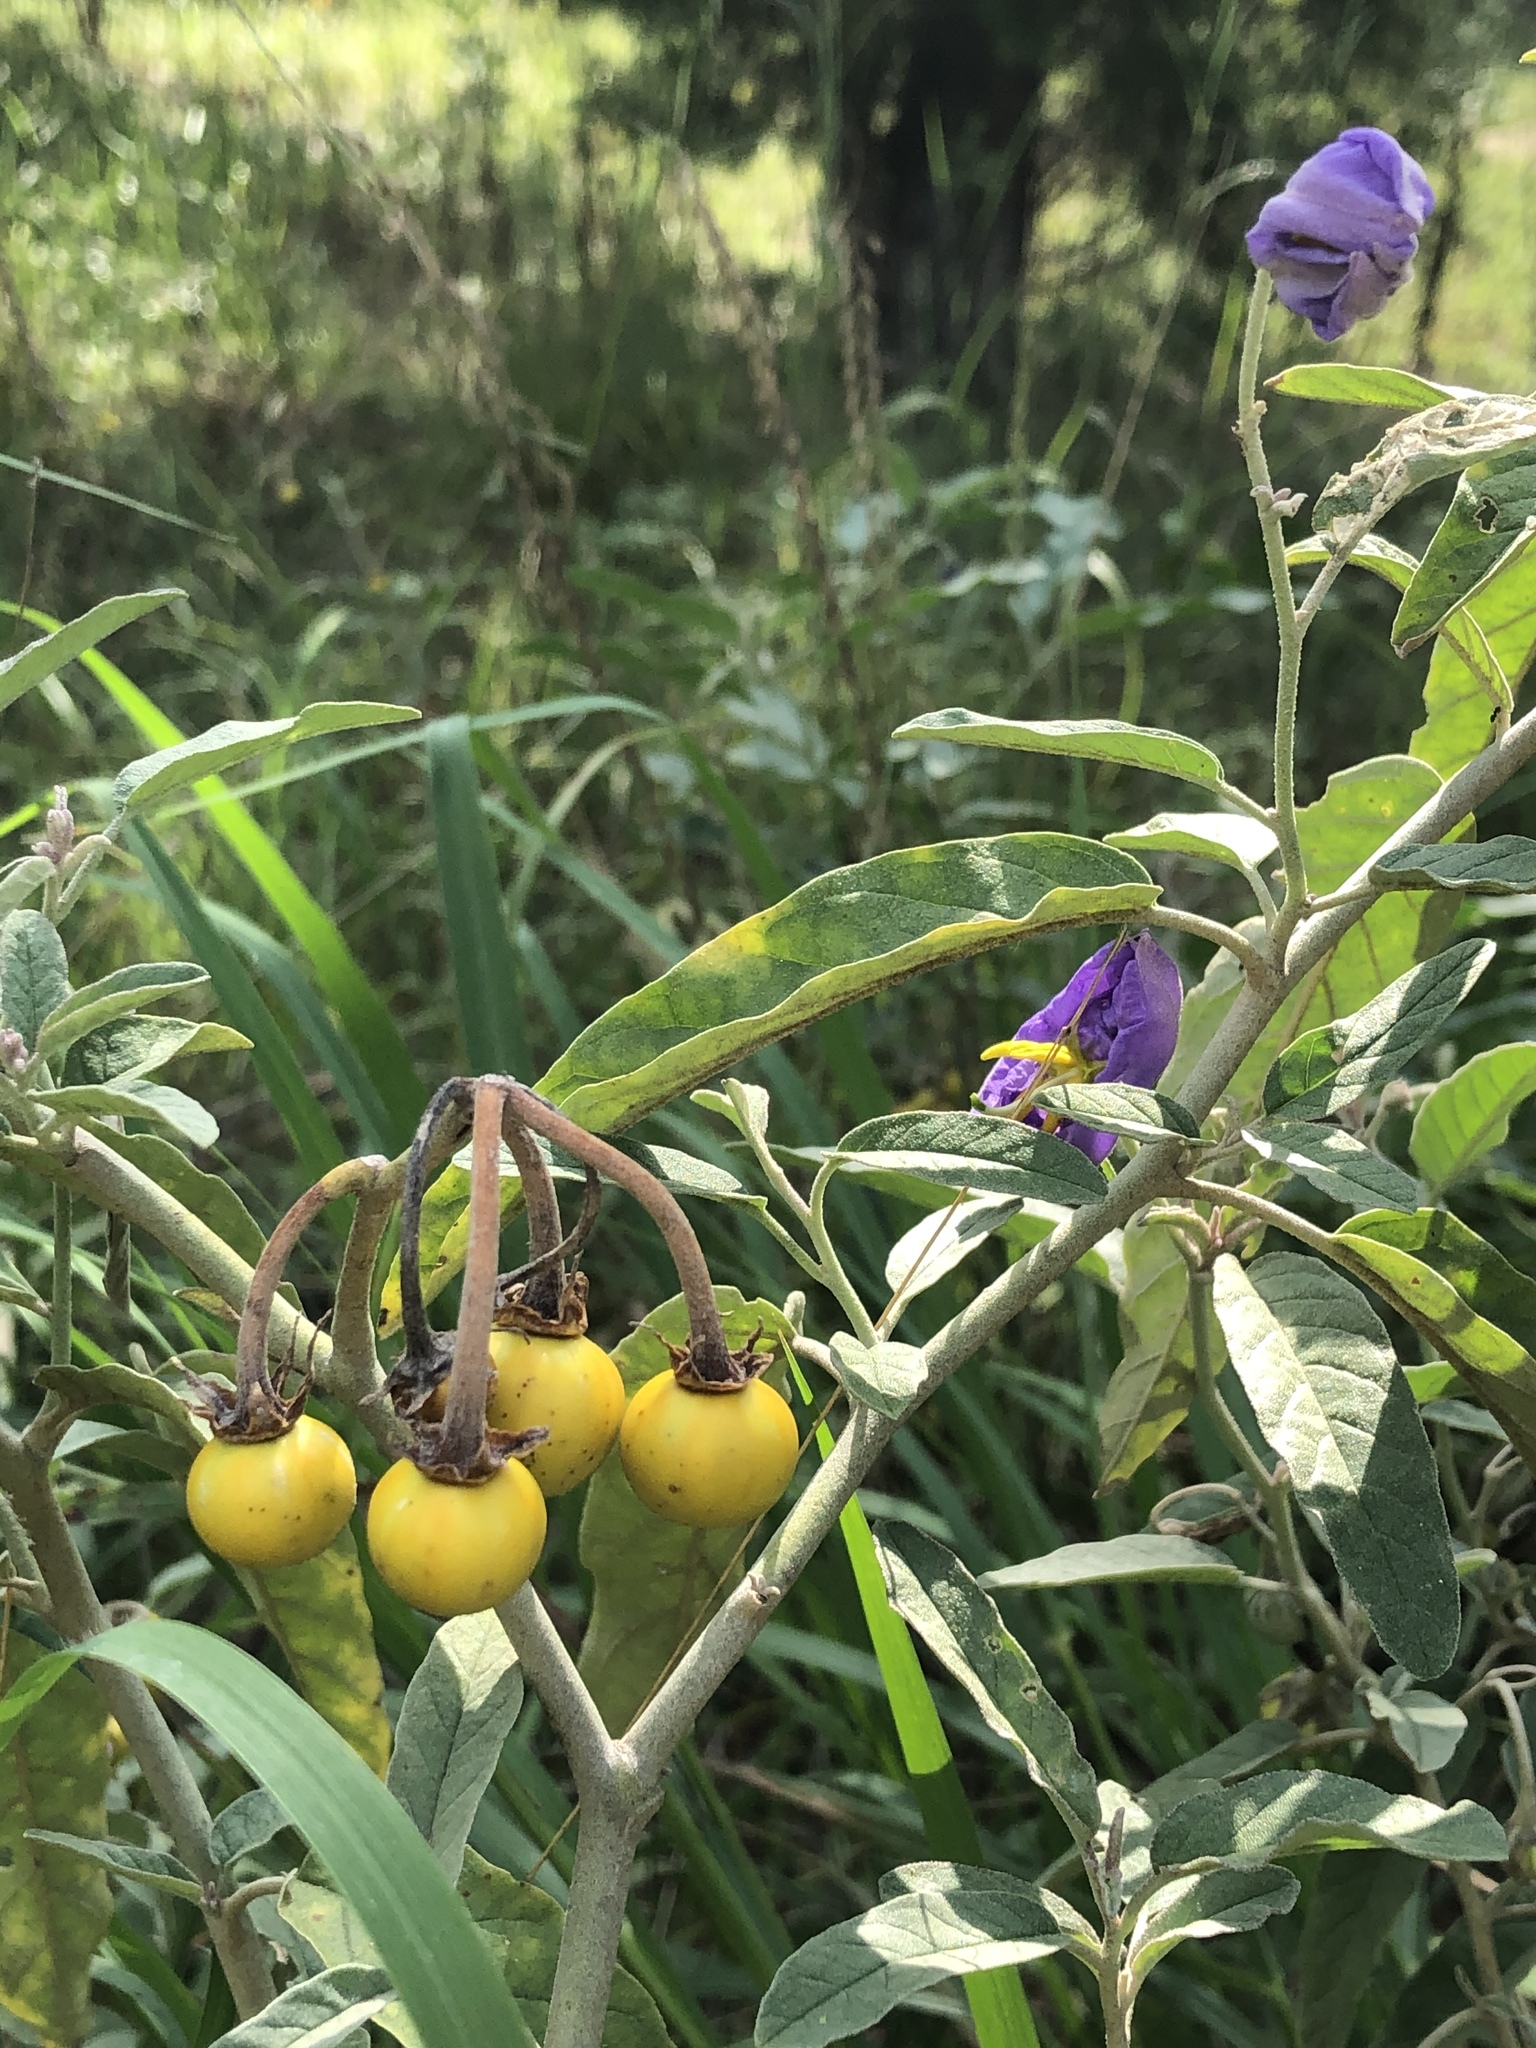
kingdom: Plantae
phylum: Tracheophyta
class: Magnoliopsida
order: Solanales
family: Solanaceae
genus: Solanum
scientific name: Solanum elaeagnifolium
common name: Silverleaf nightshade
